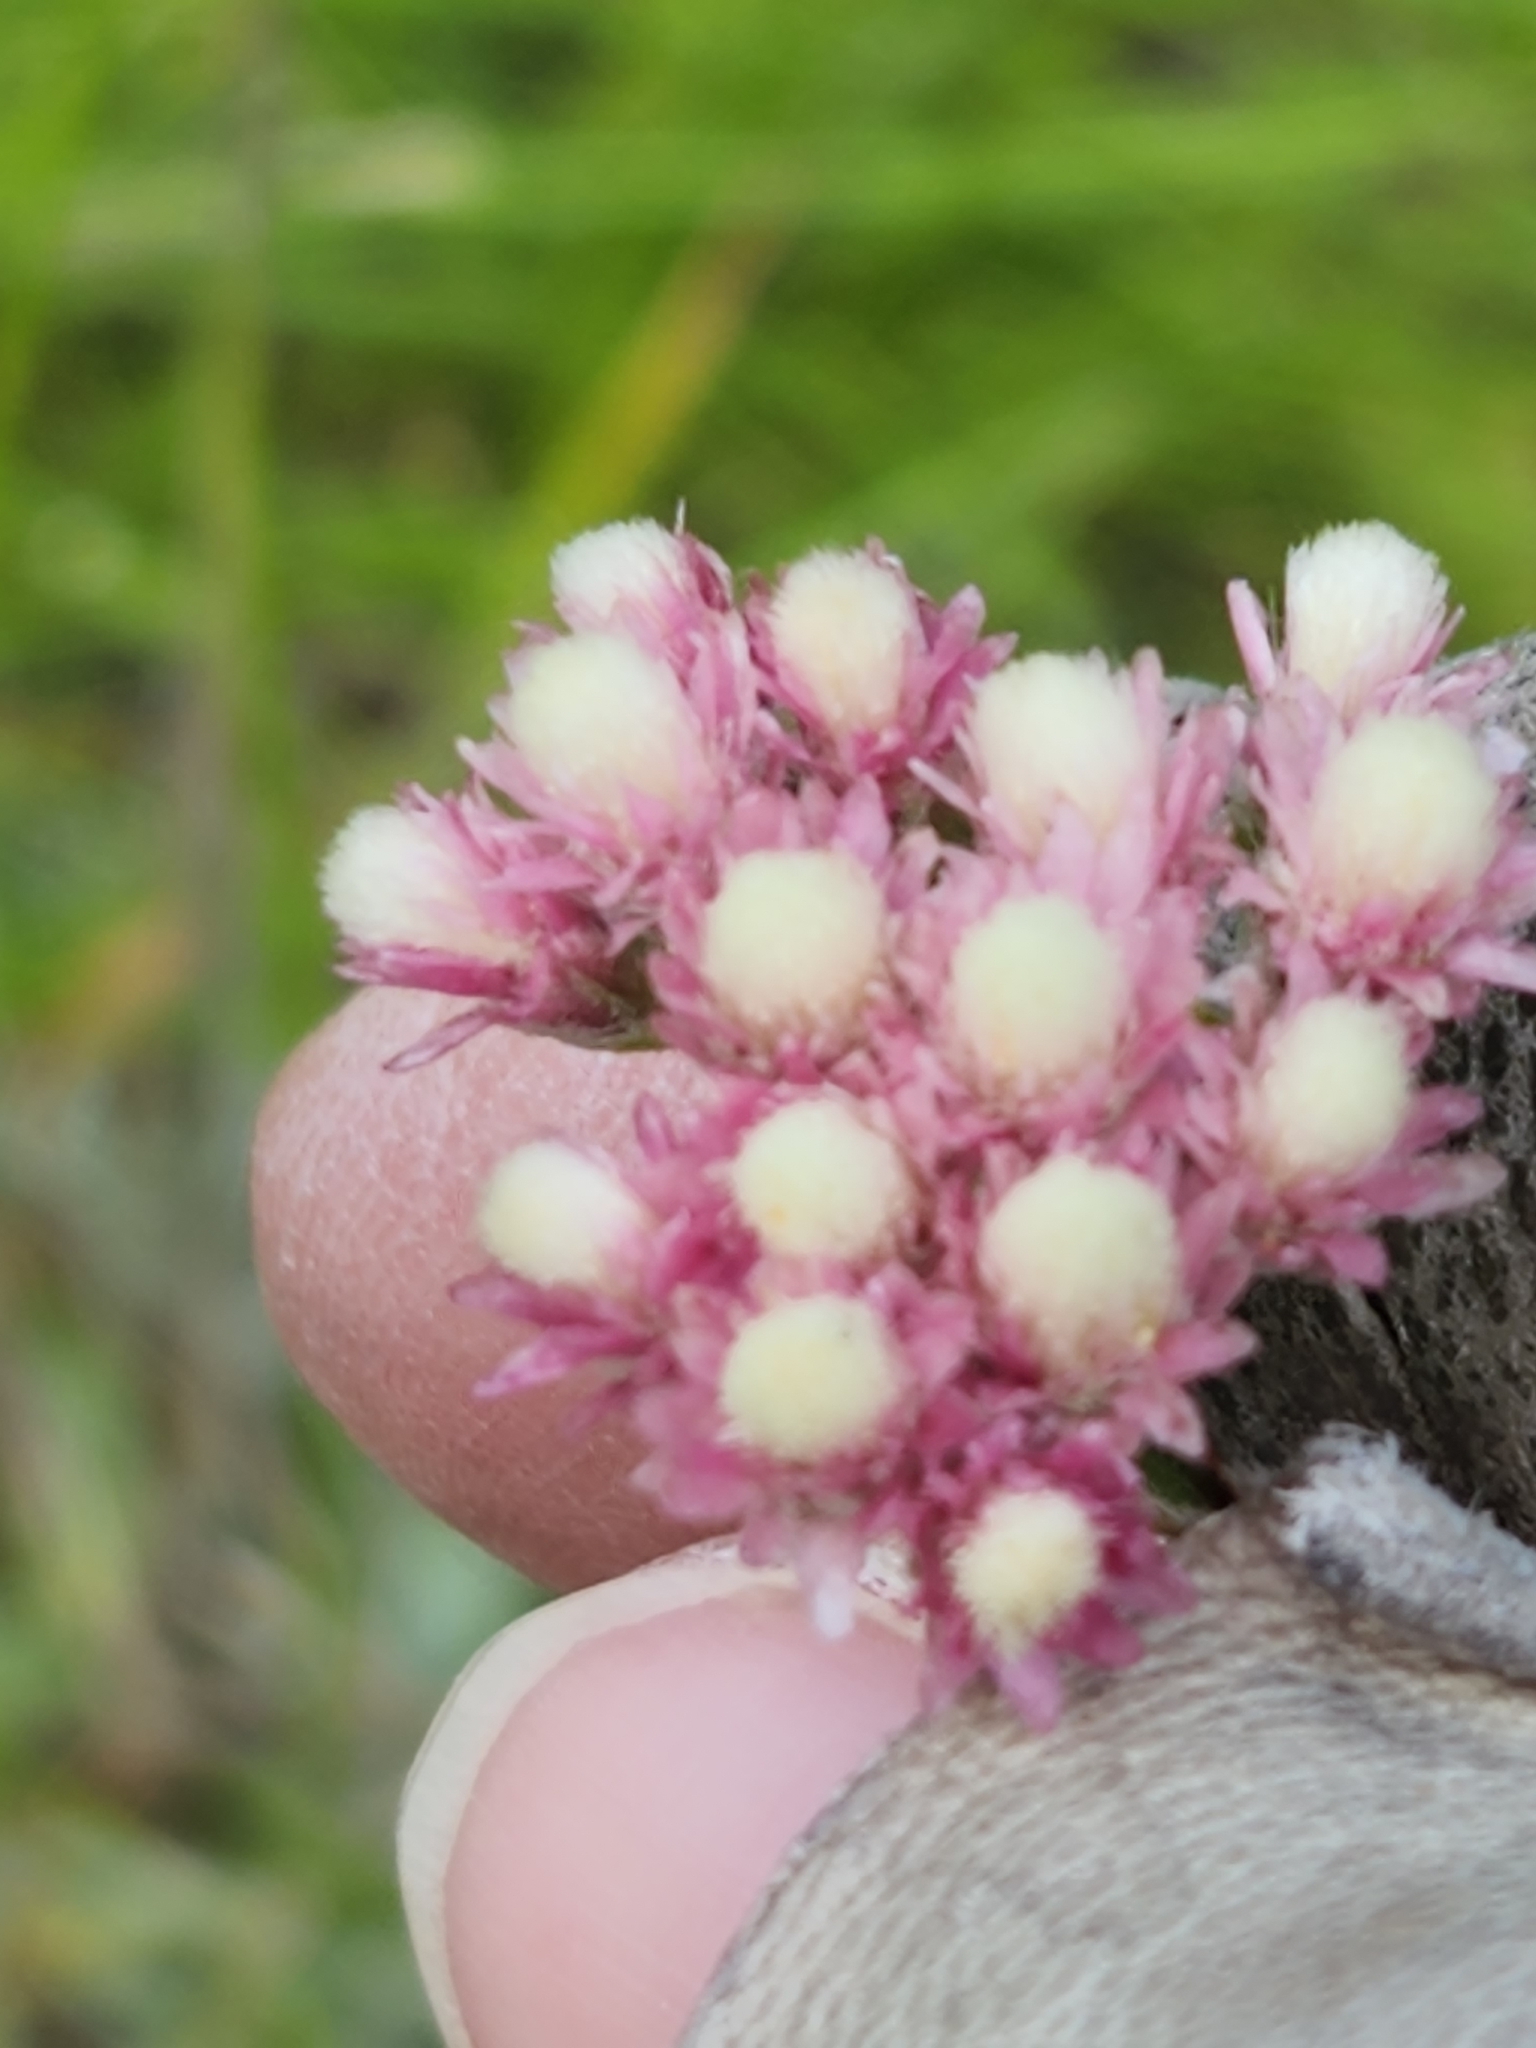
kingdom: Plantae
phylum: Tracheophyta
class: Magnoliopsida
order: Asterales
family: Asteraceae
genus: Antennaria
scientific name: Antennaria rosea
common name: Rosy pussytoes
